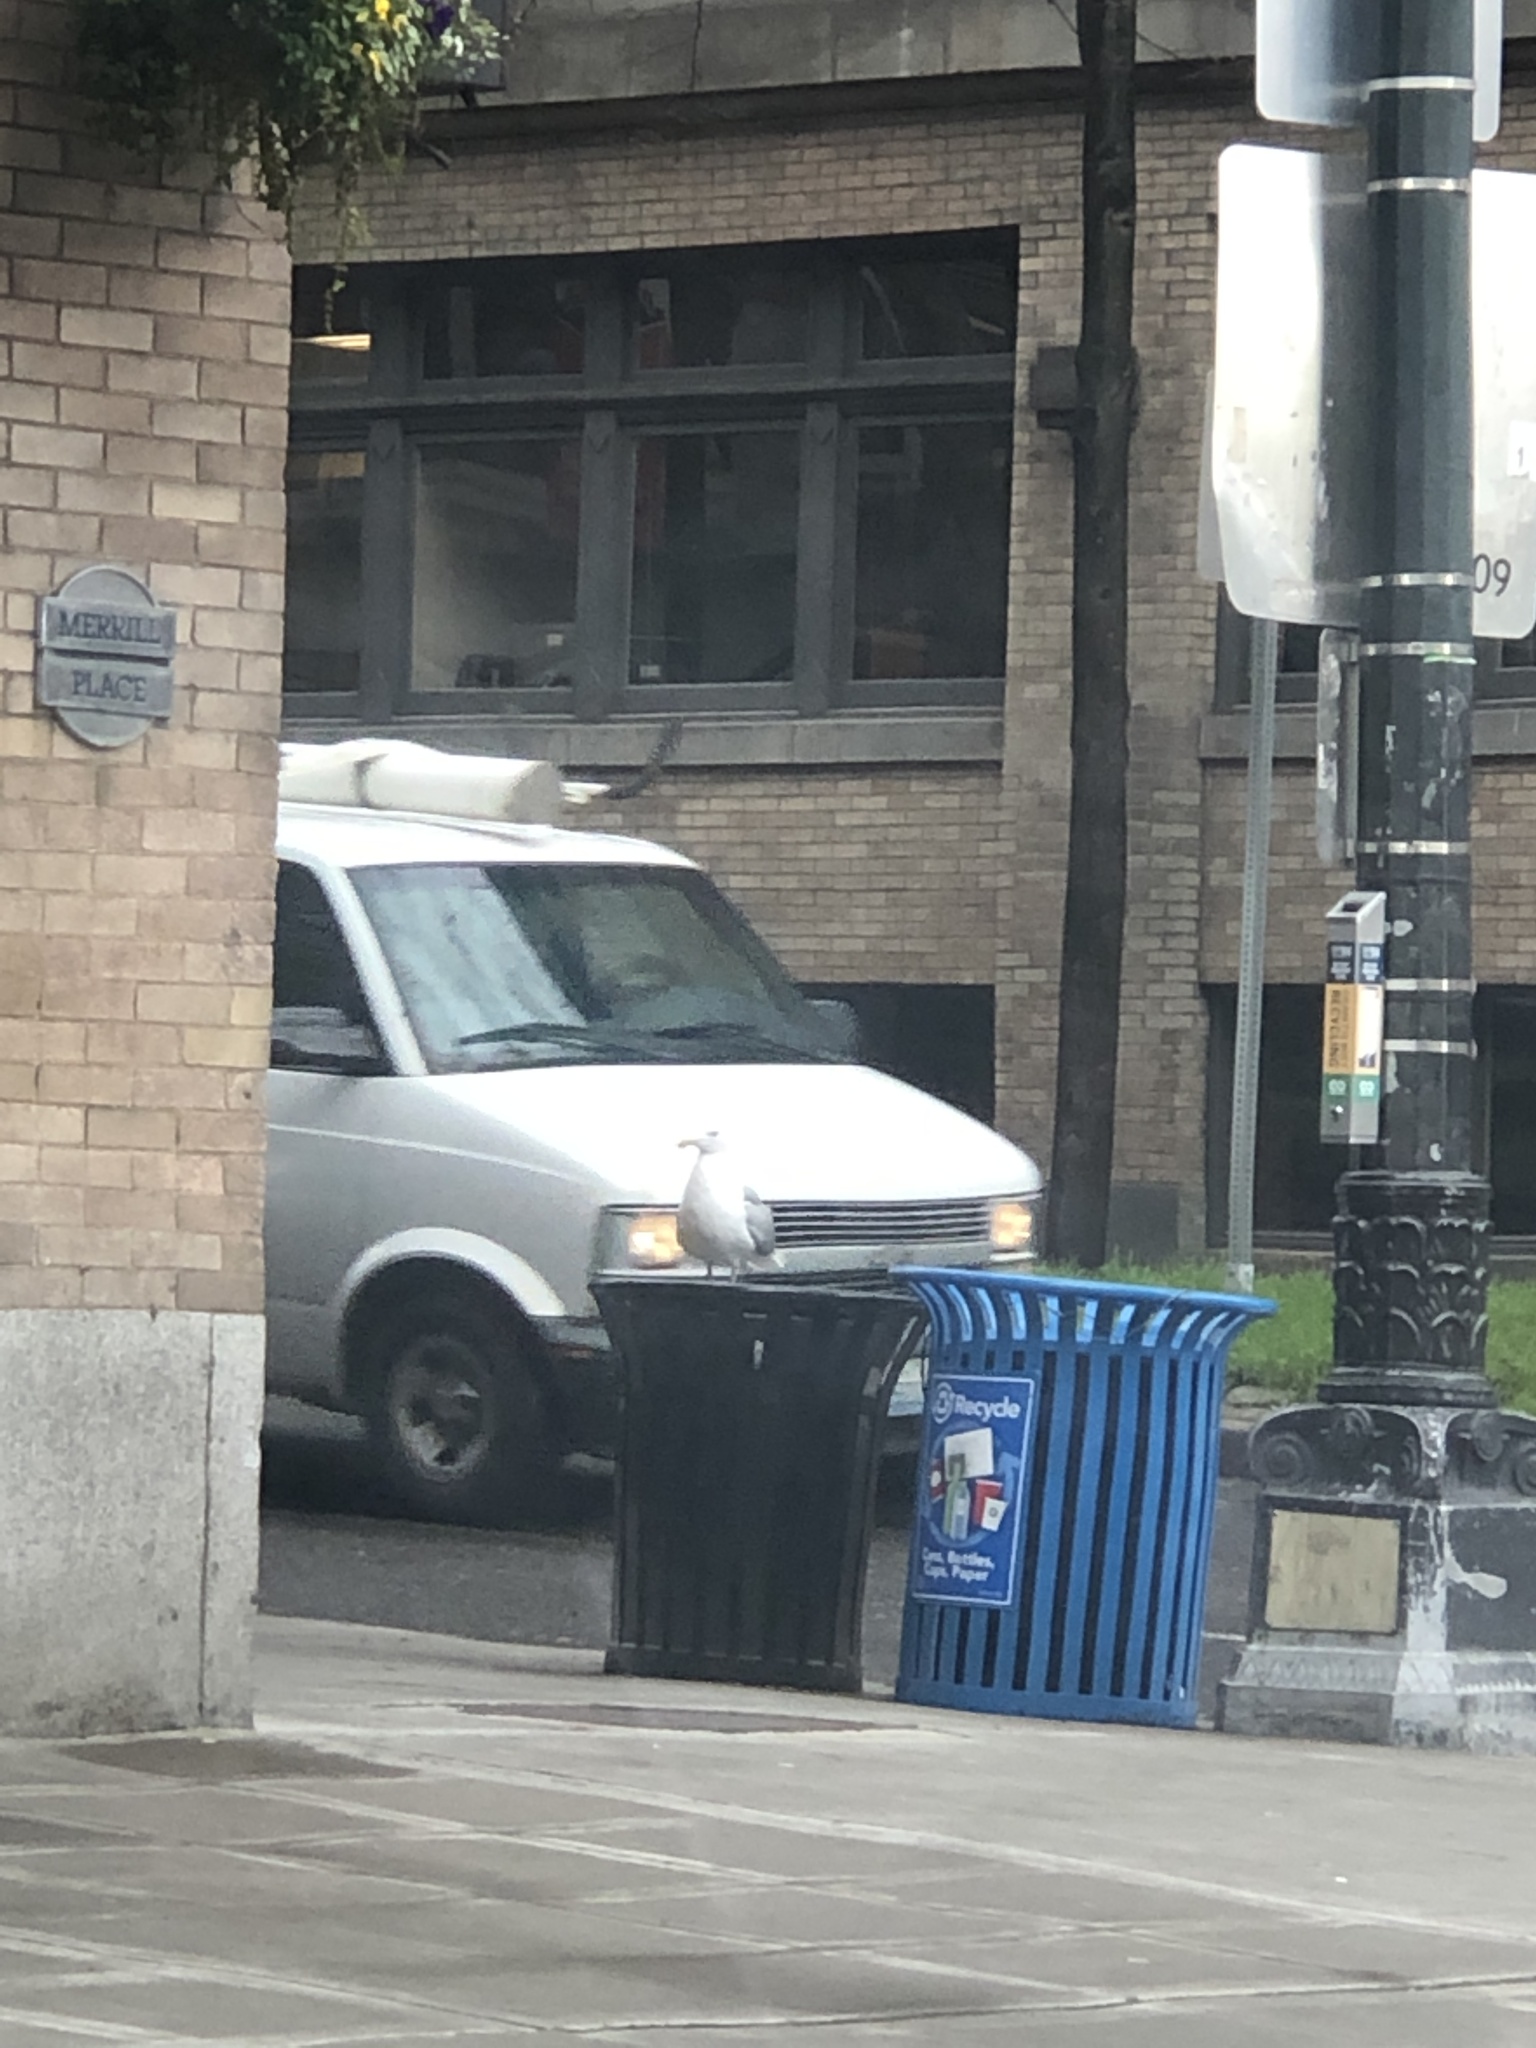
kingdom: Animalia
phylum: Chordata
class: Aves
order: Charadriiformes
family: Laridae
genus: Larus
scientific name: Larus
